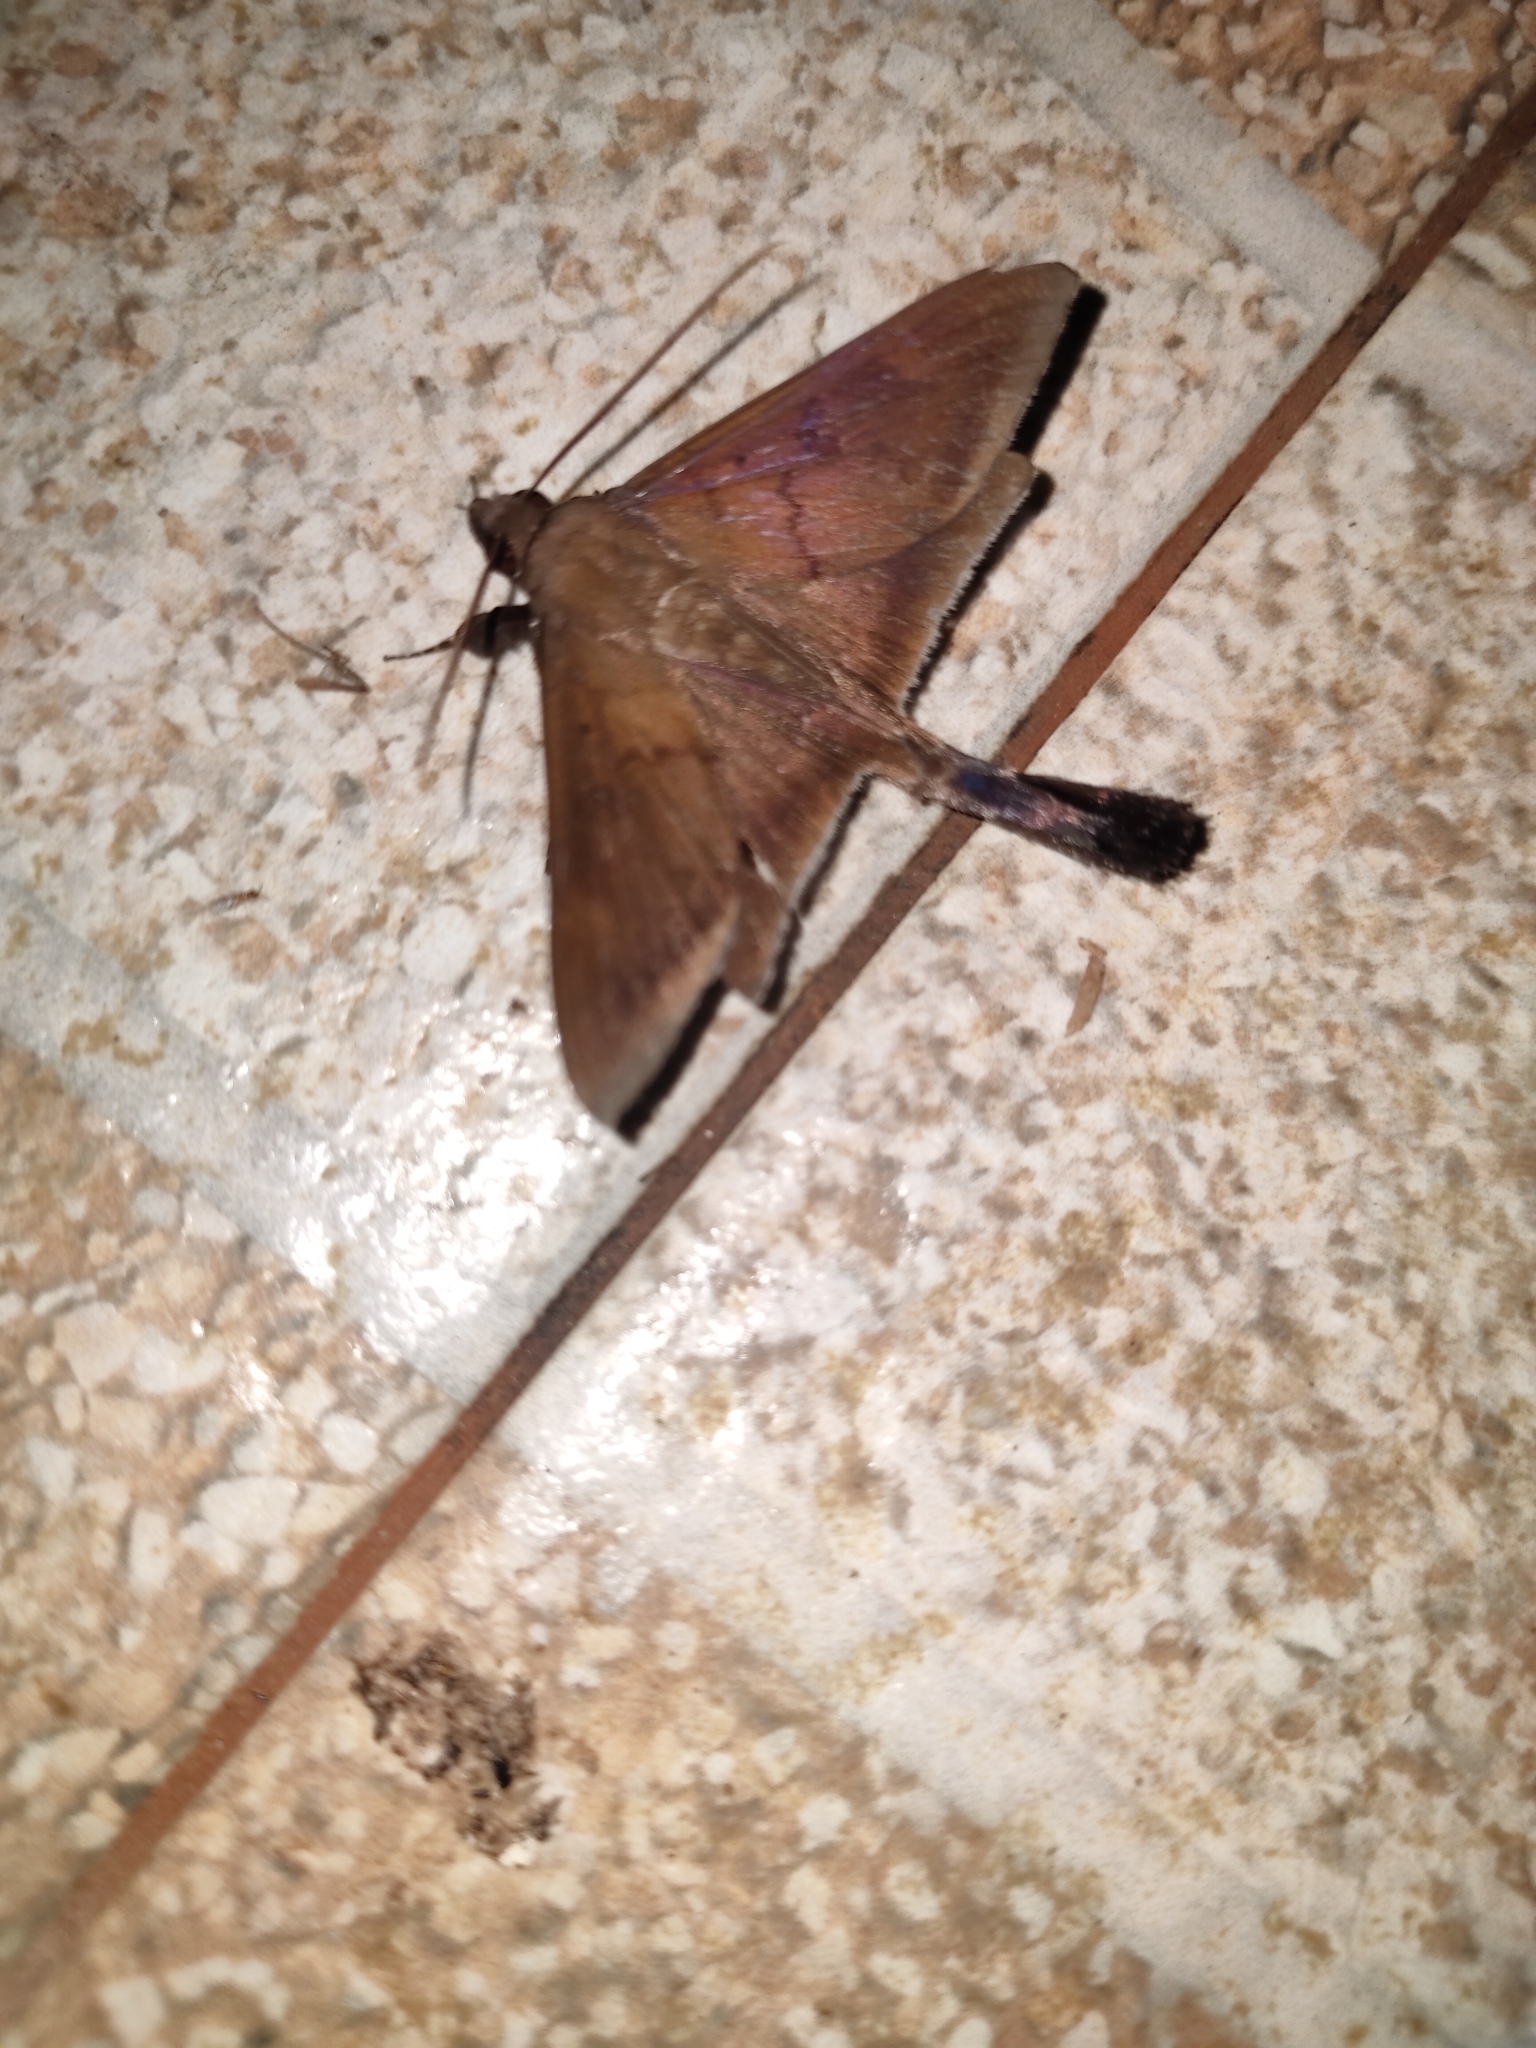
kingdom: Animalia
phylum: Arthropoda
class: Insecta
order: Lepidoptera
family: Erebidae
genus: Platyja
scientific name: Platyja umbrina
